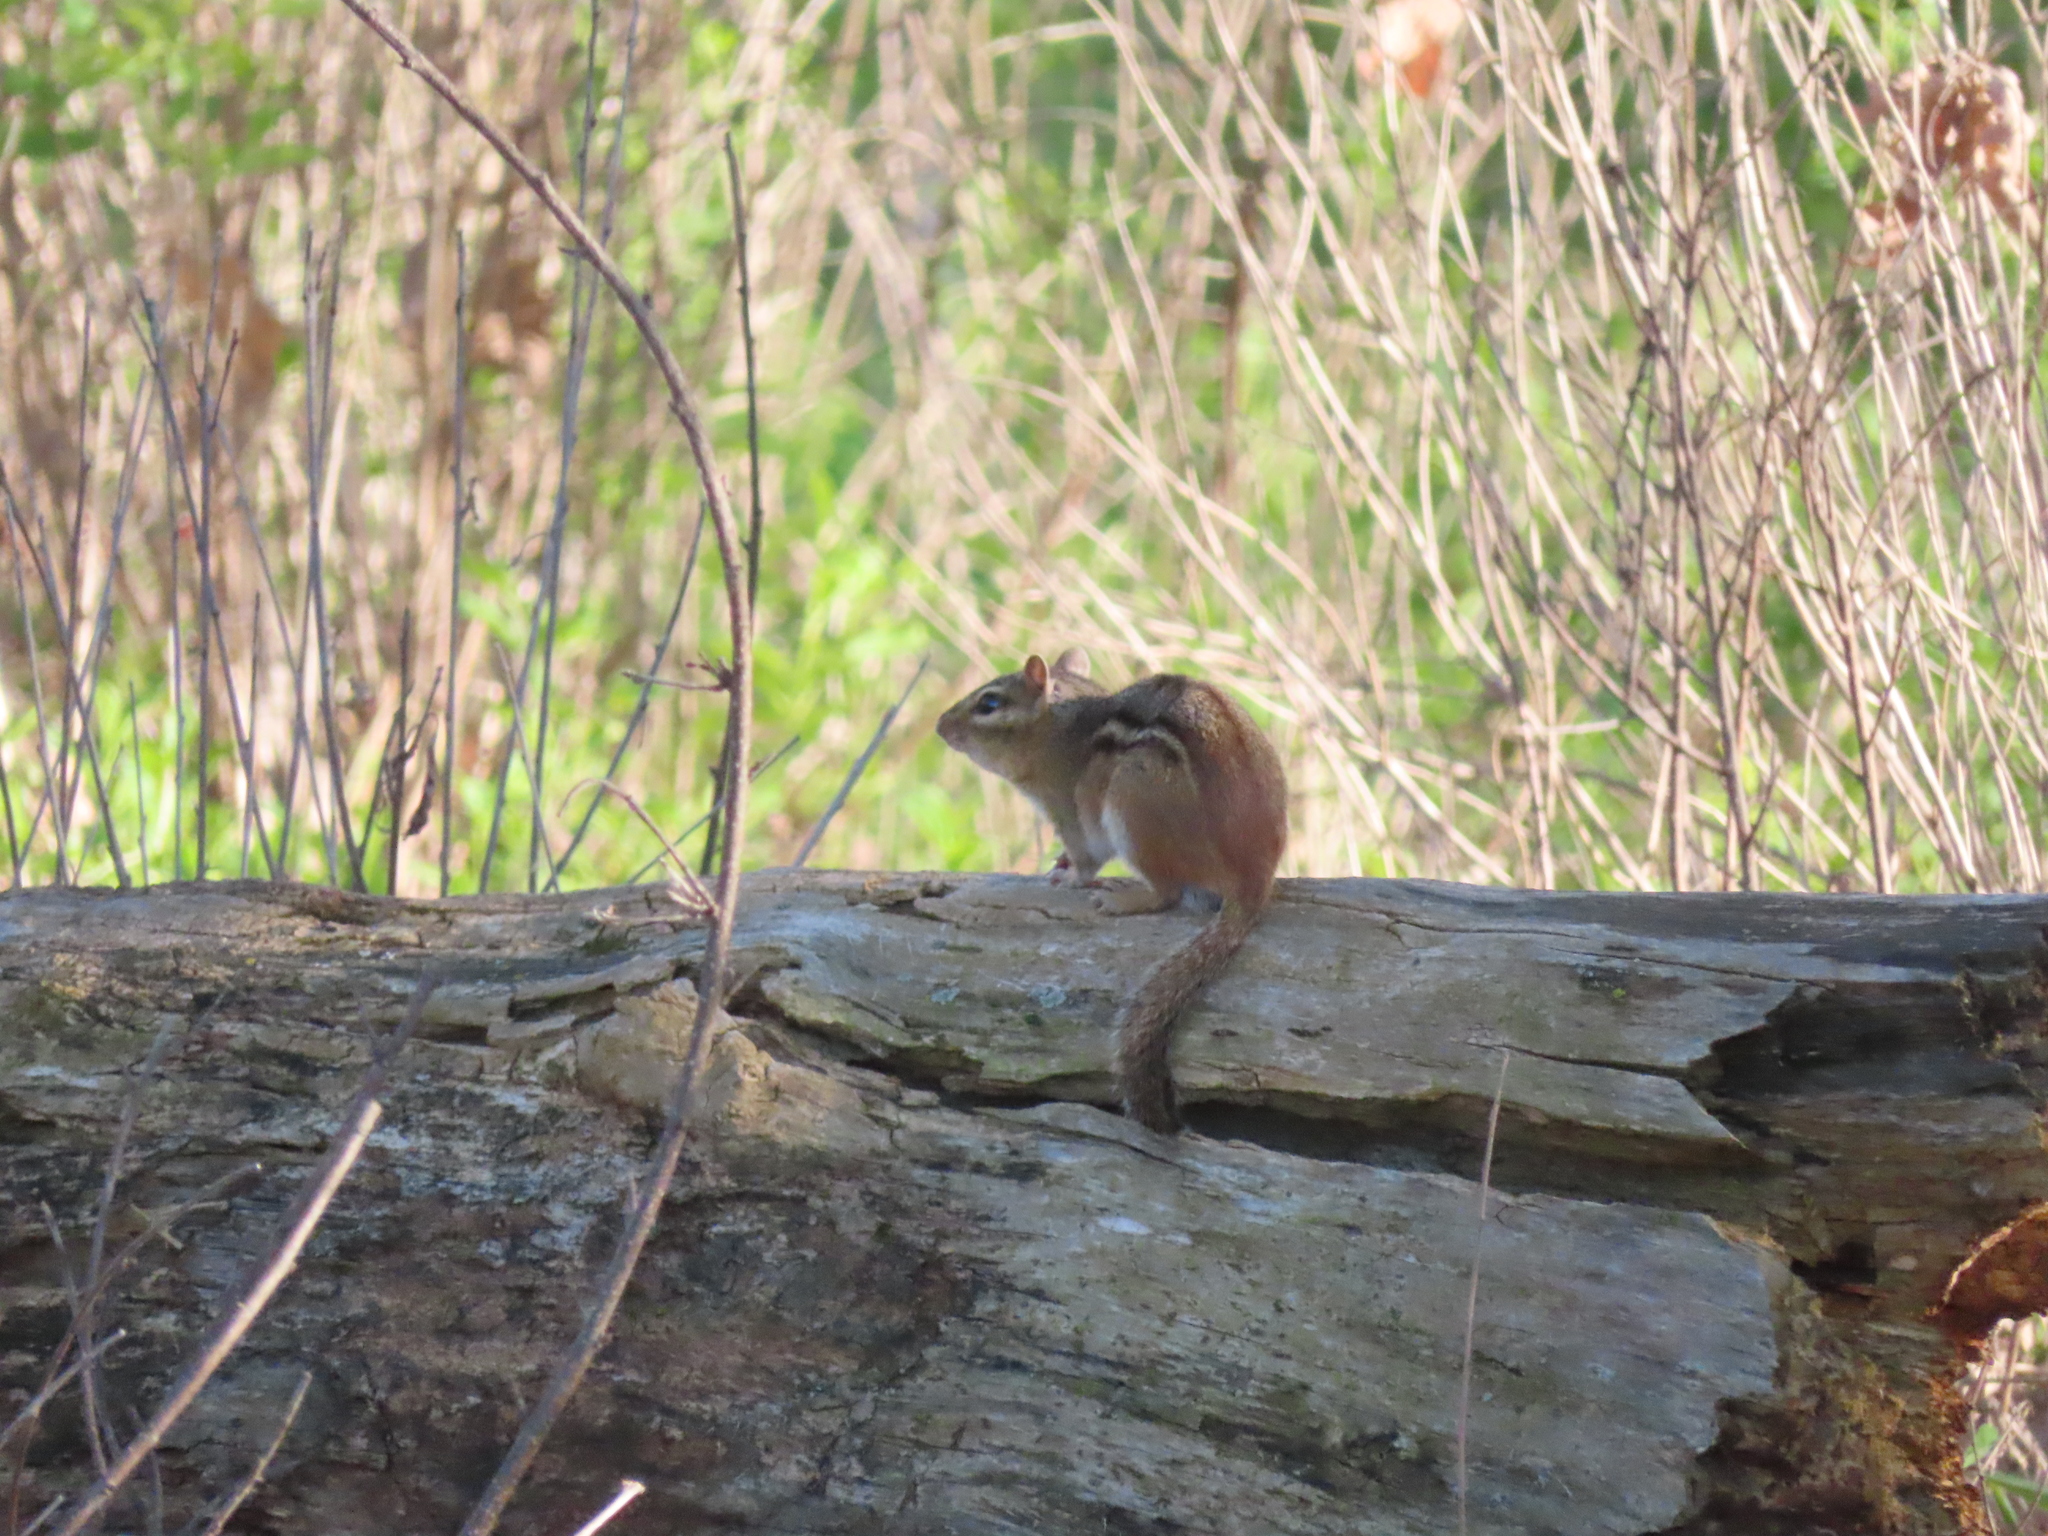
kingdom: Animalia
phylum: Chordata
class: Mammalia
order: Rodentia
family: Sciuridae
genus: Tamias
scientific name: Tamias striatus
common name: Eastern chipmunk
